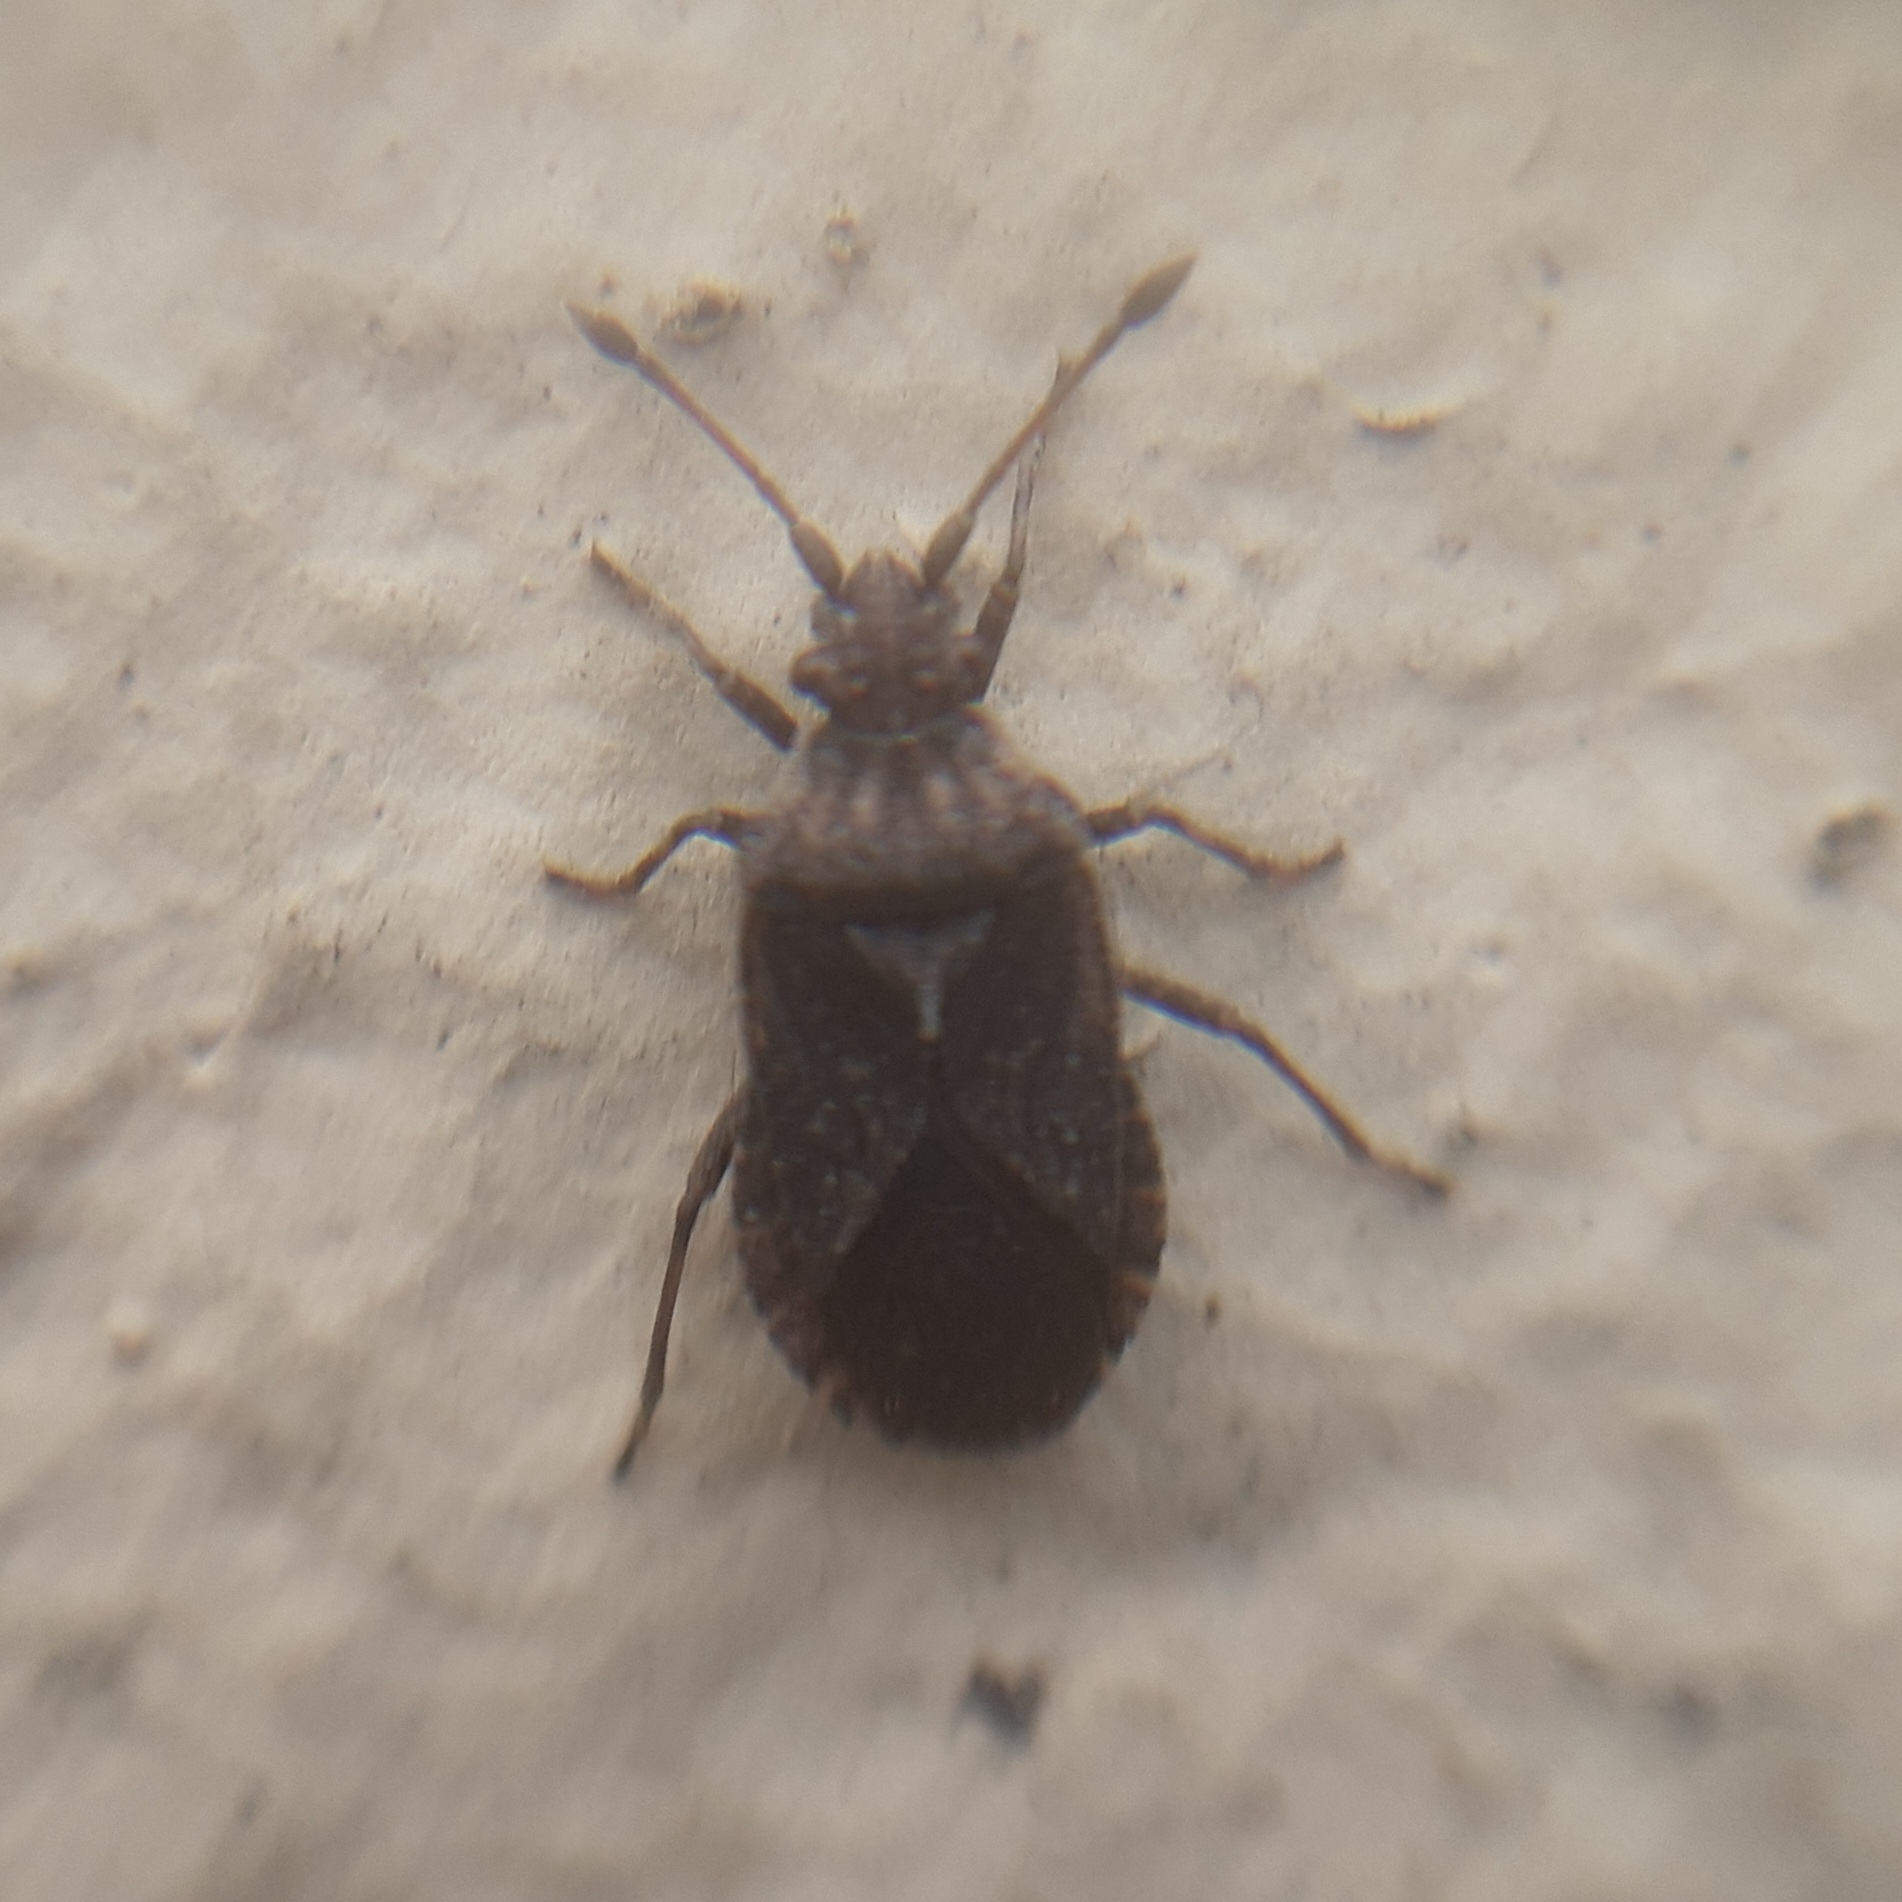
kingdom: Animalia
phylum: Arthropoda
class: Insecta
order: Hemiptera
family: Coreidae
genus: Bathysolen
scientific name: Bathysolen nubilus
